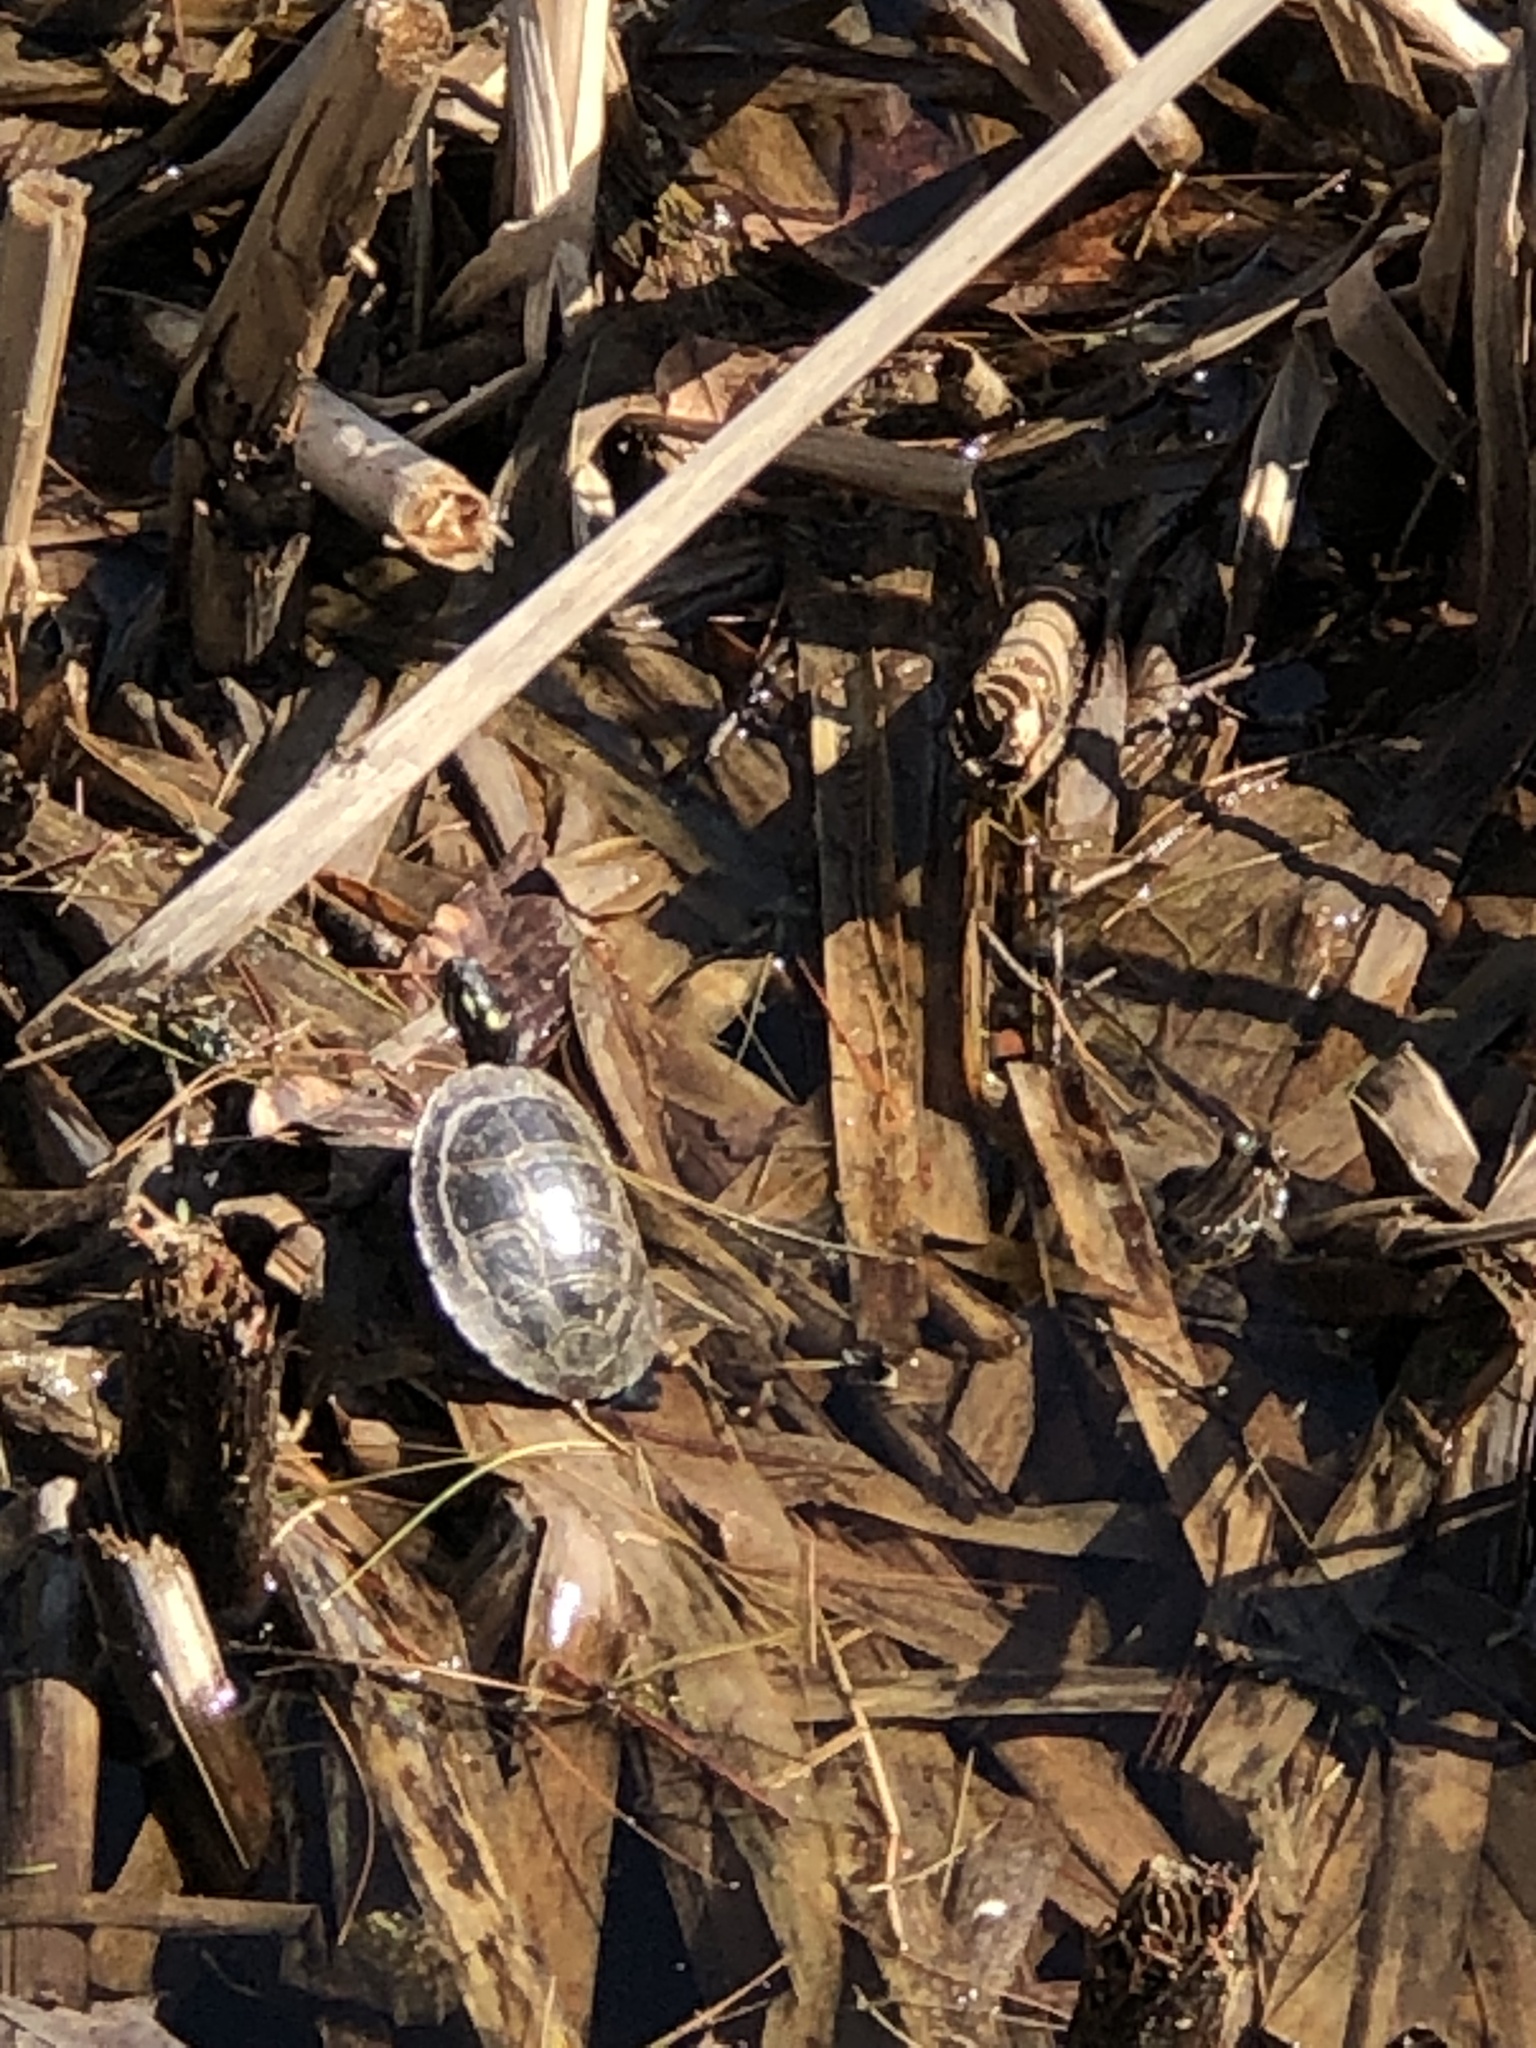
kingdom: Animalia
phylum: Chordata
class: Testudines
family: Emydidae
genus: Chrysemys
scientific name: Chrysemys picta
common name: Painted turtle
